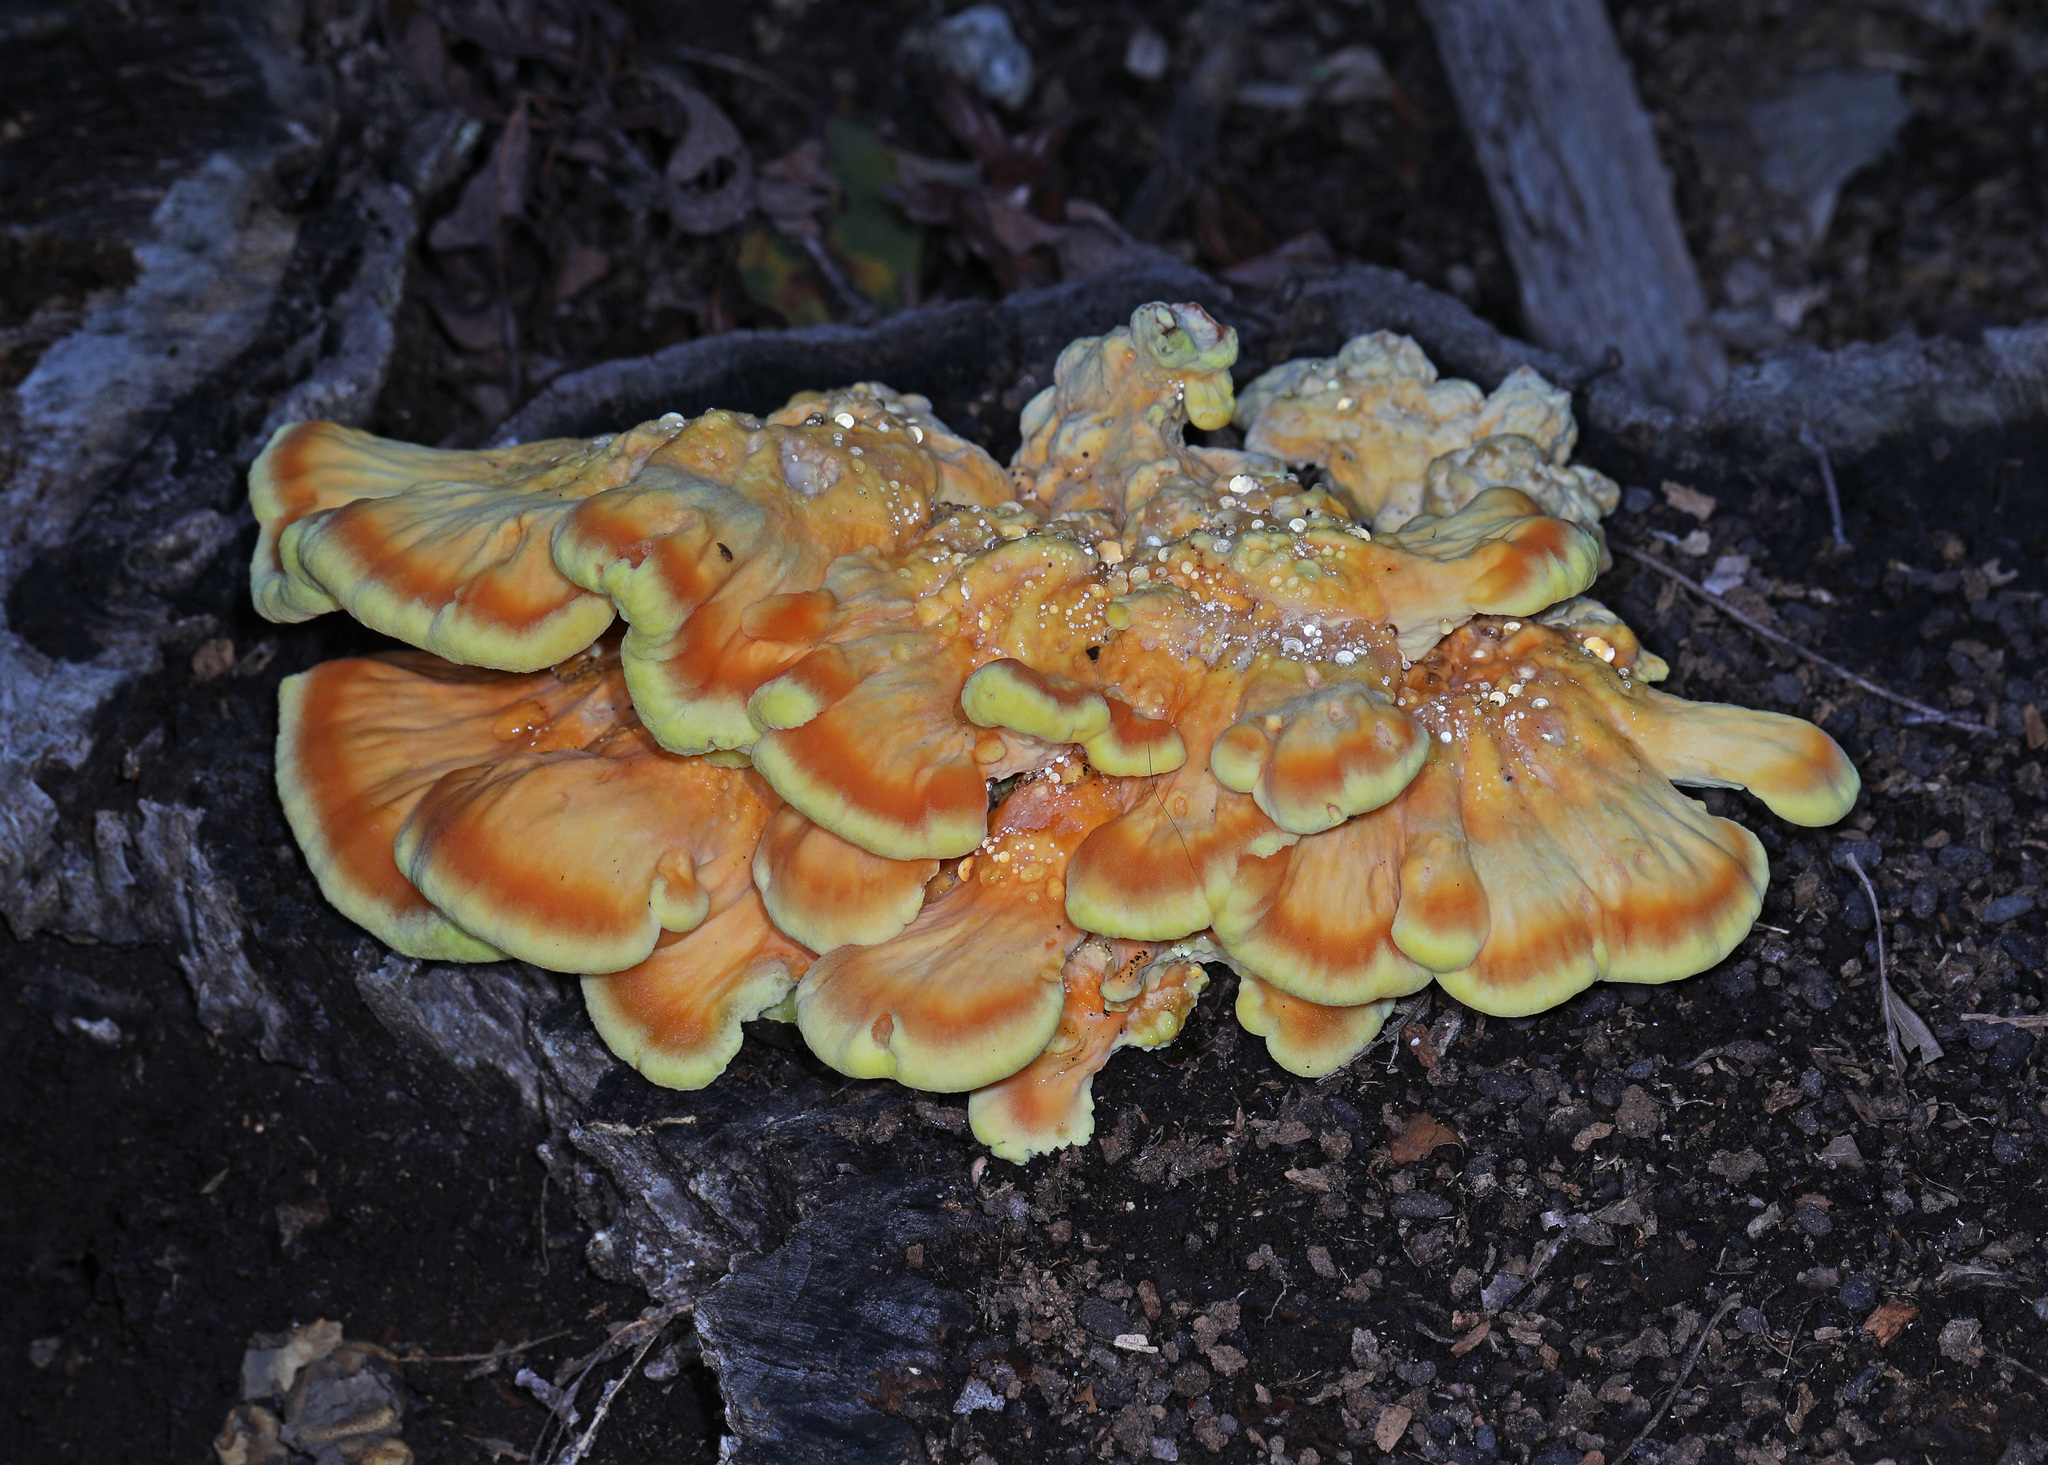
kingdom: Fungi
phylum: Basidiomycota
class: Agaricomycetes
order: Polyporales
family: Laetiporaceae
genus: Laetiporus
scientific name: Laetiporus sulphureus
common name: Chicken of the woods
